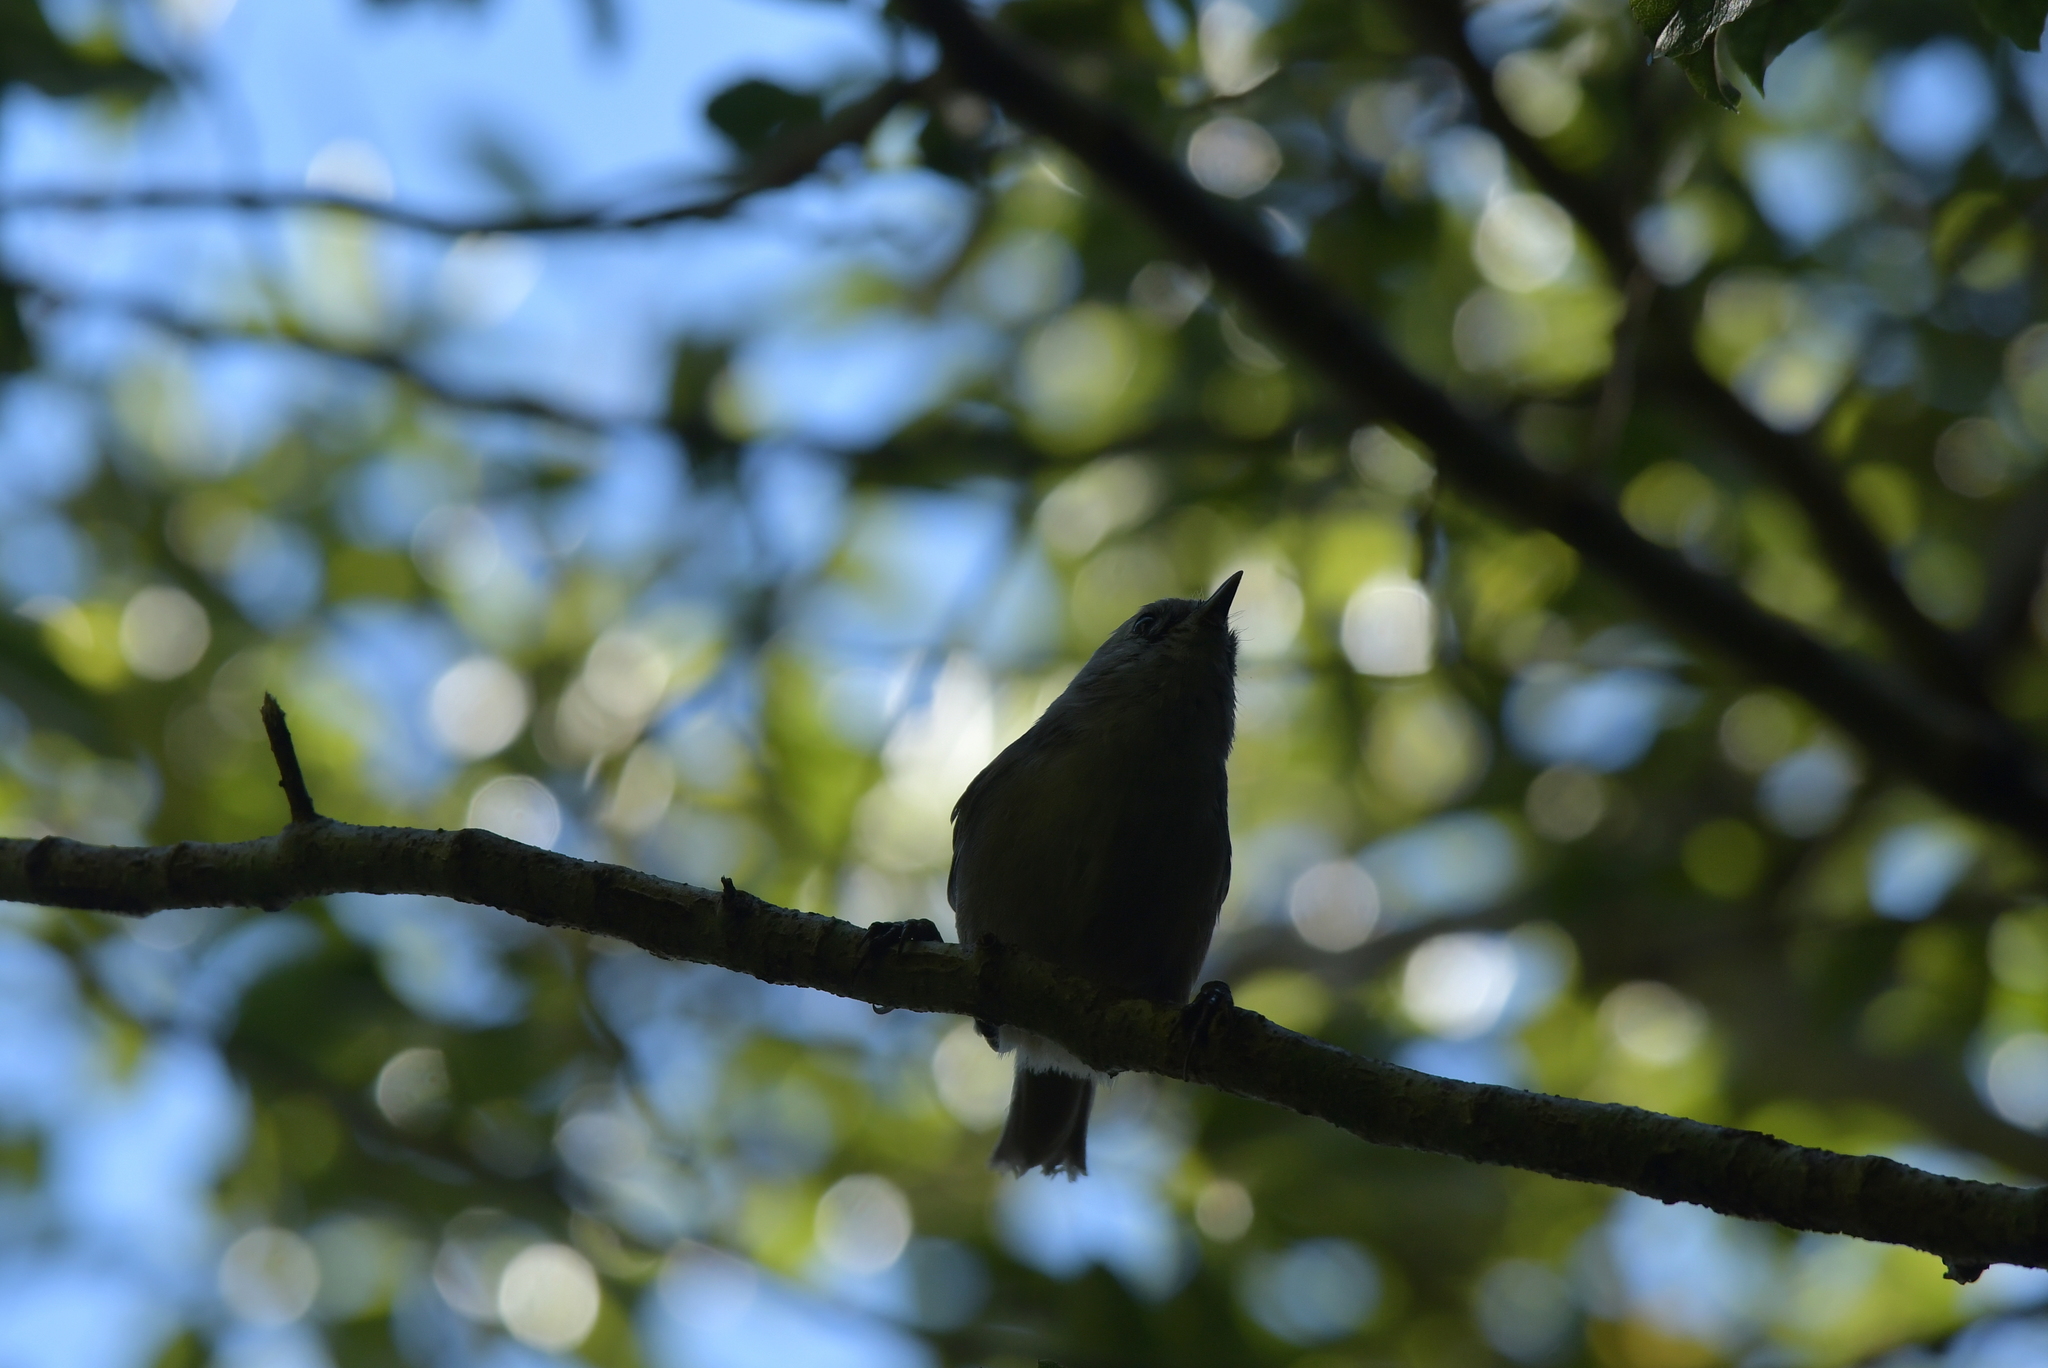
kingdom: Animalia
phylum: Chordata
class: Aves
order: Passeriformes
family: Acanthizidae
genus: Mohoua
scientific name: Mohoua albicilla
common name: Whitehead
